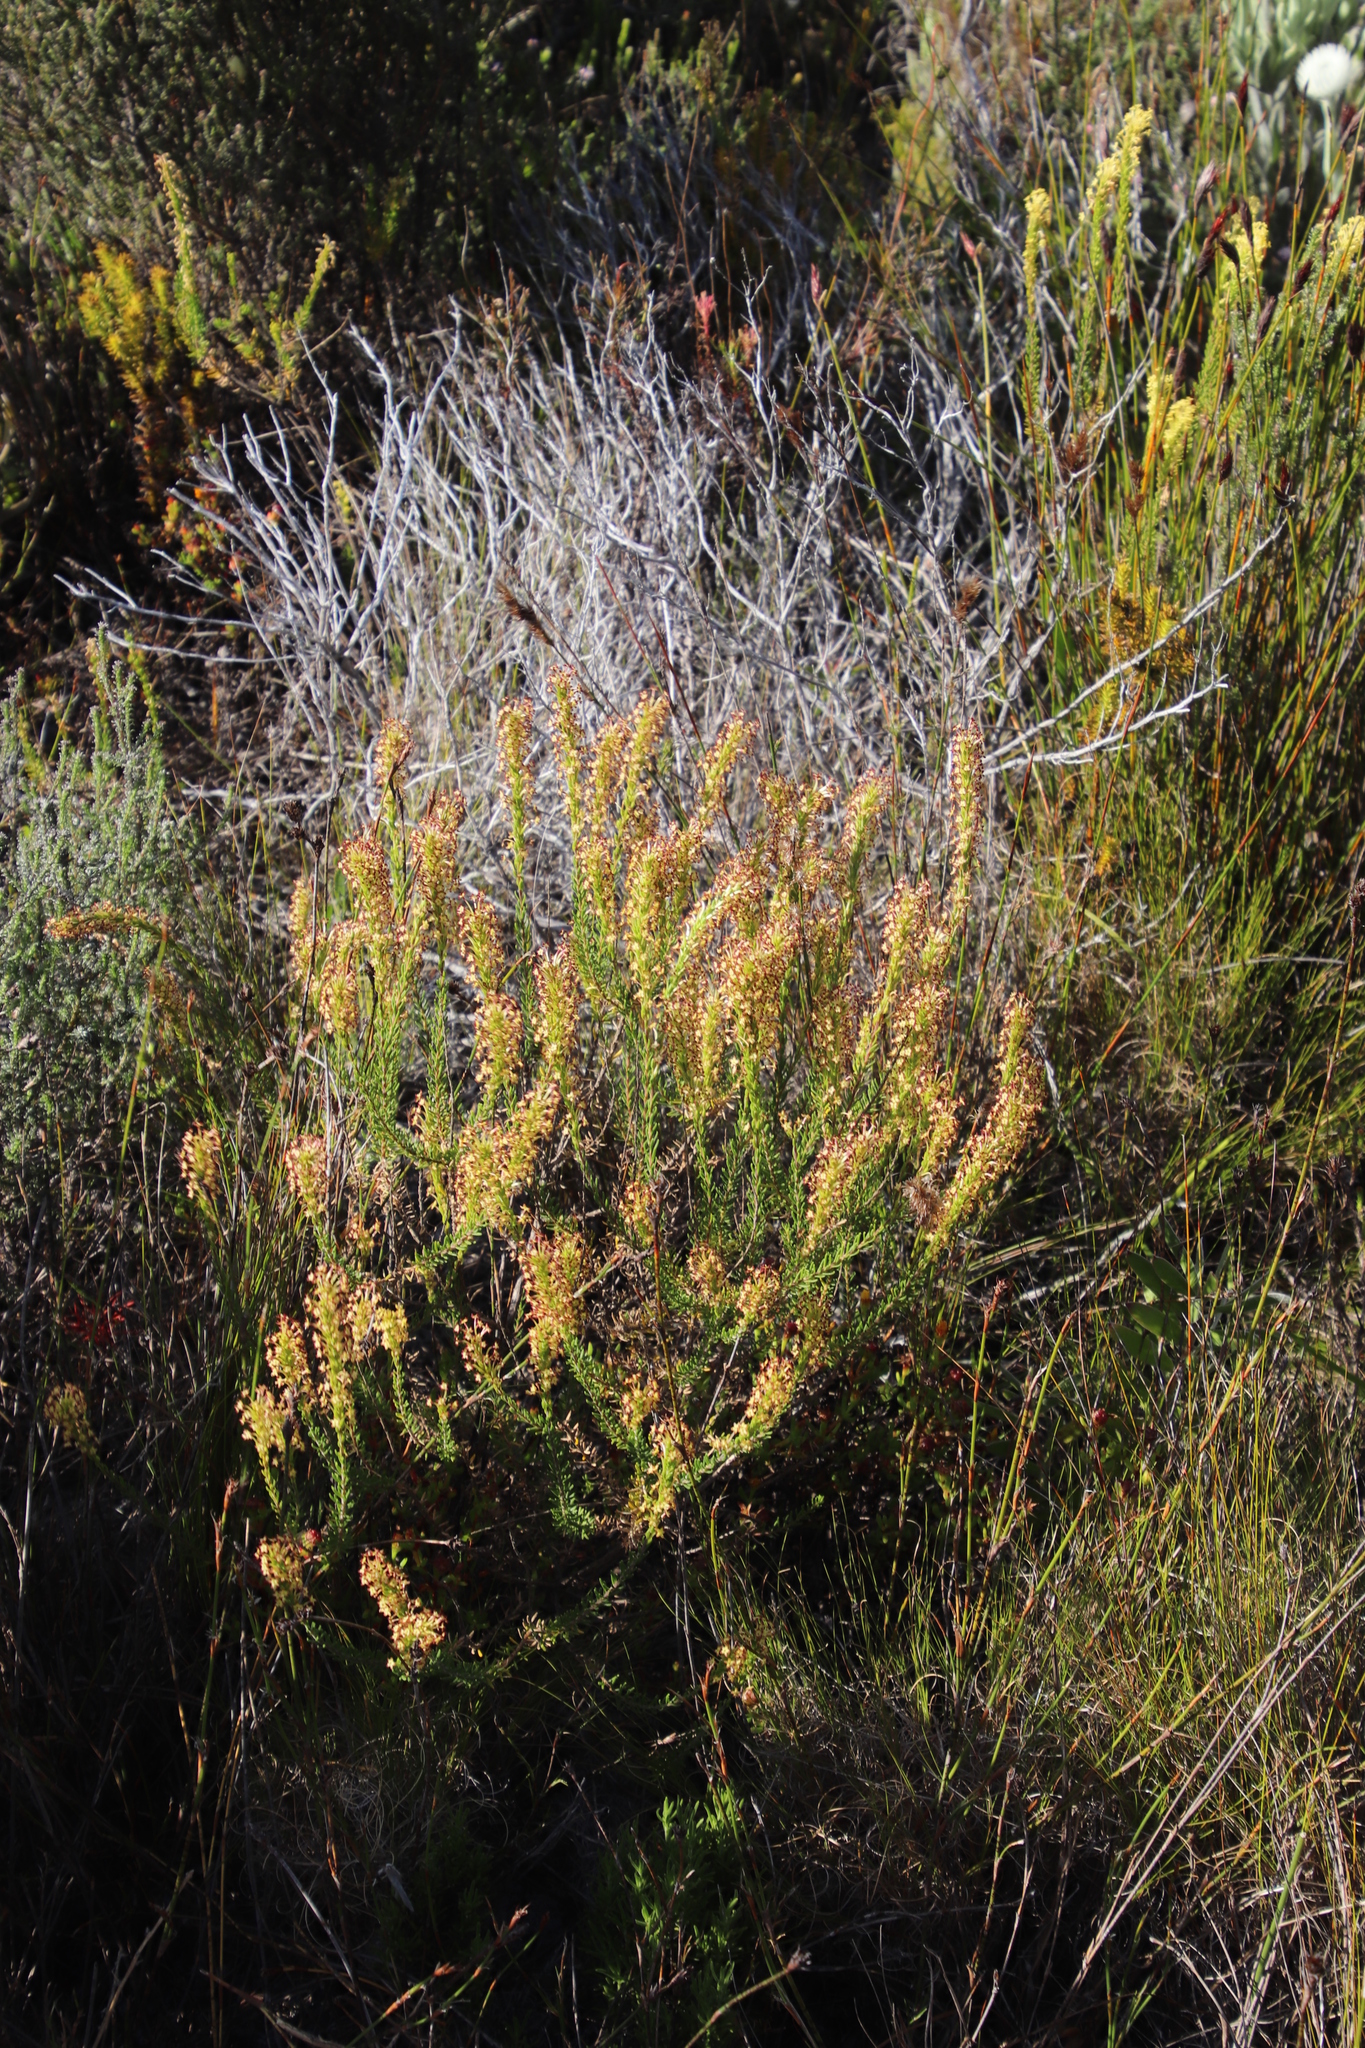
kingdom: Plantae
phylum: Tracheophyta
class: Magnoliopsida
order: Lamiales
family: Scrophulariaceae
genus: Microdon
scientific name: Microdon dubius
